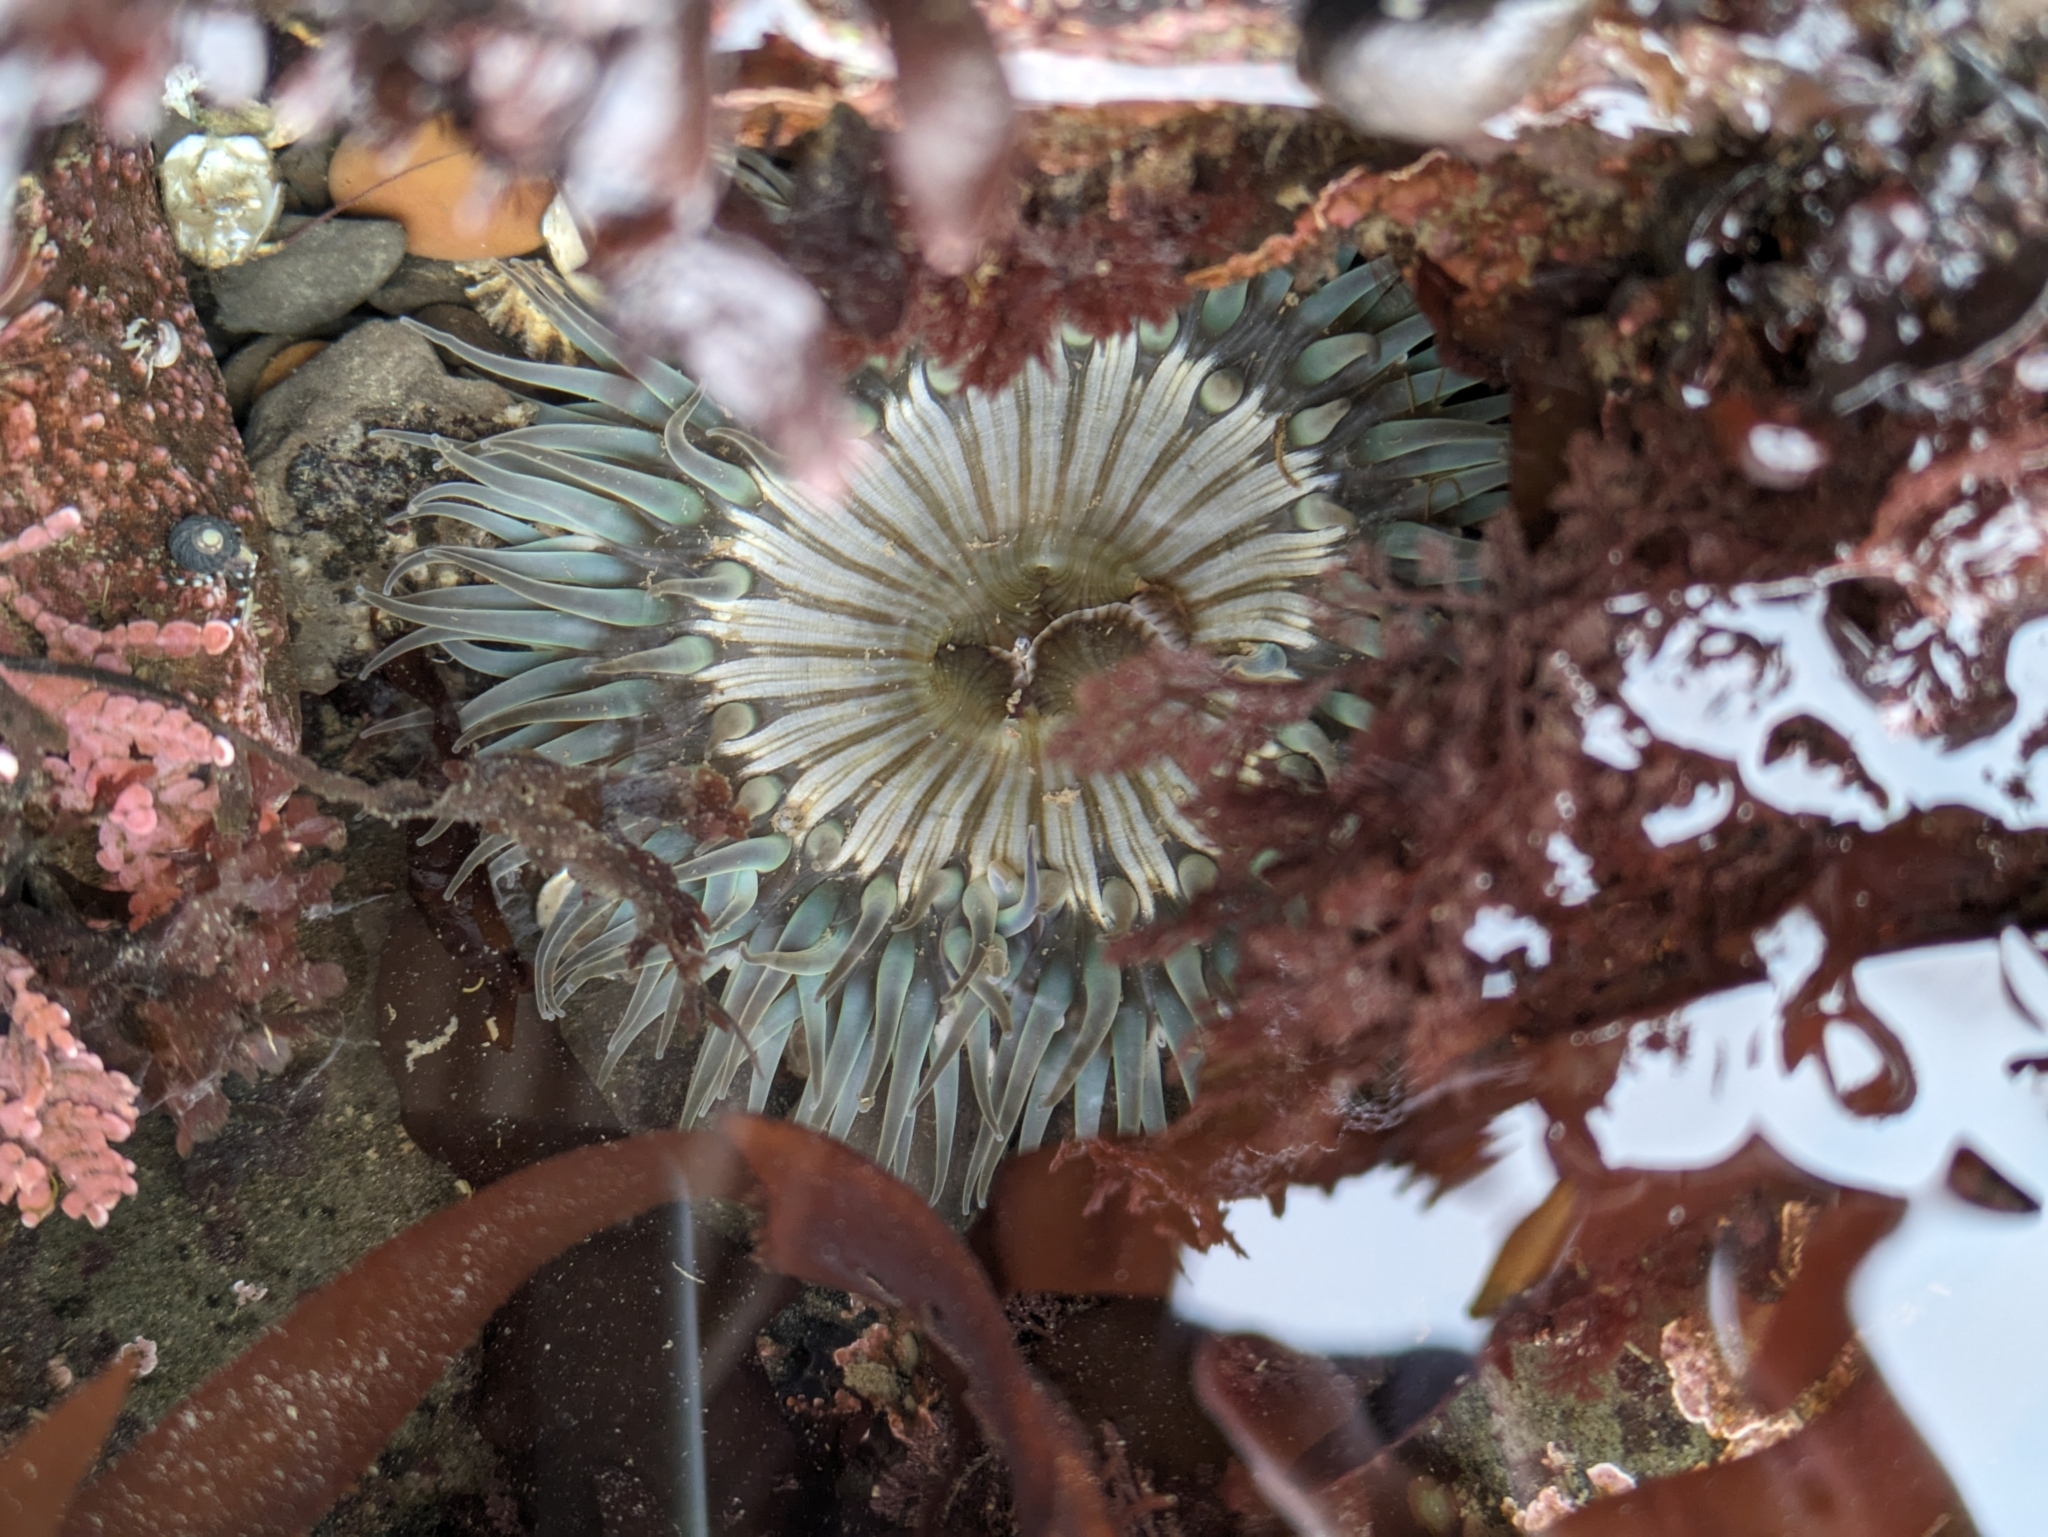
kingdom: Animalia
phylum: Cnidaria
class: Anthozoa
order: Actiniaria
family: Actiniidae
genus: Anthopleura
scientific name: Anthopleura sola
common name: Sun anemone
